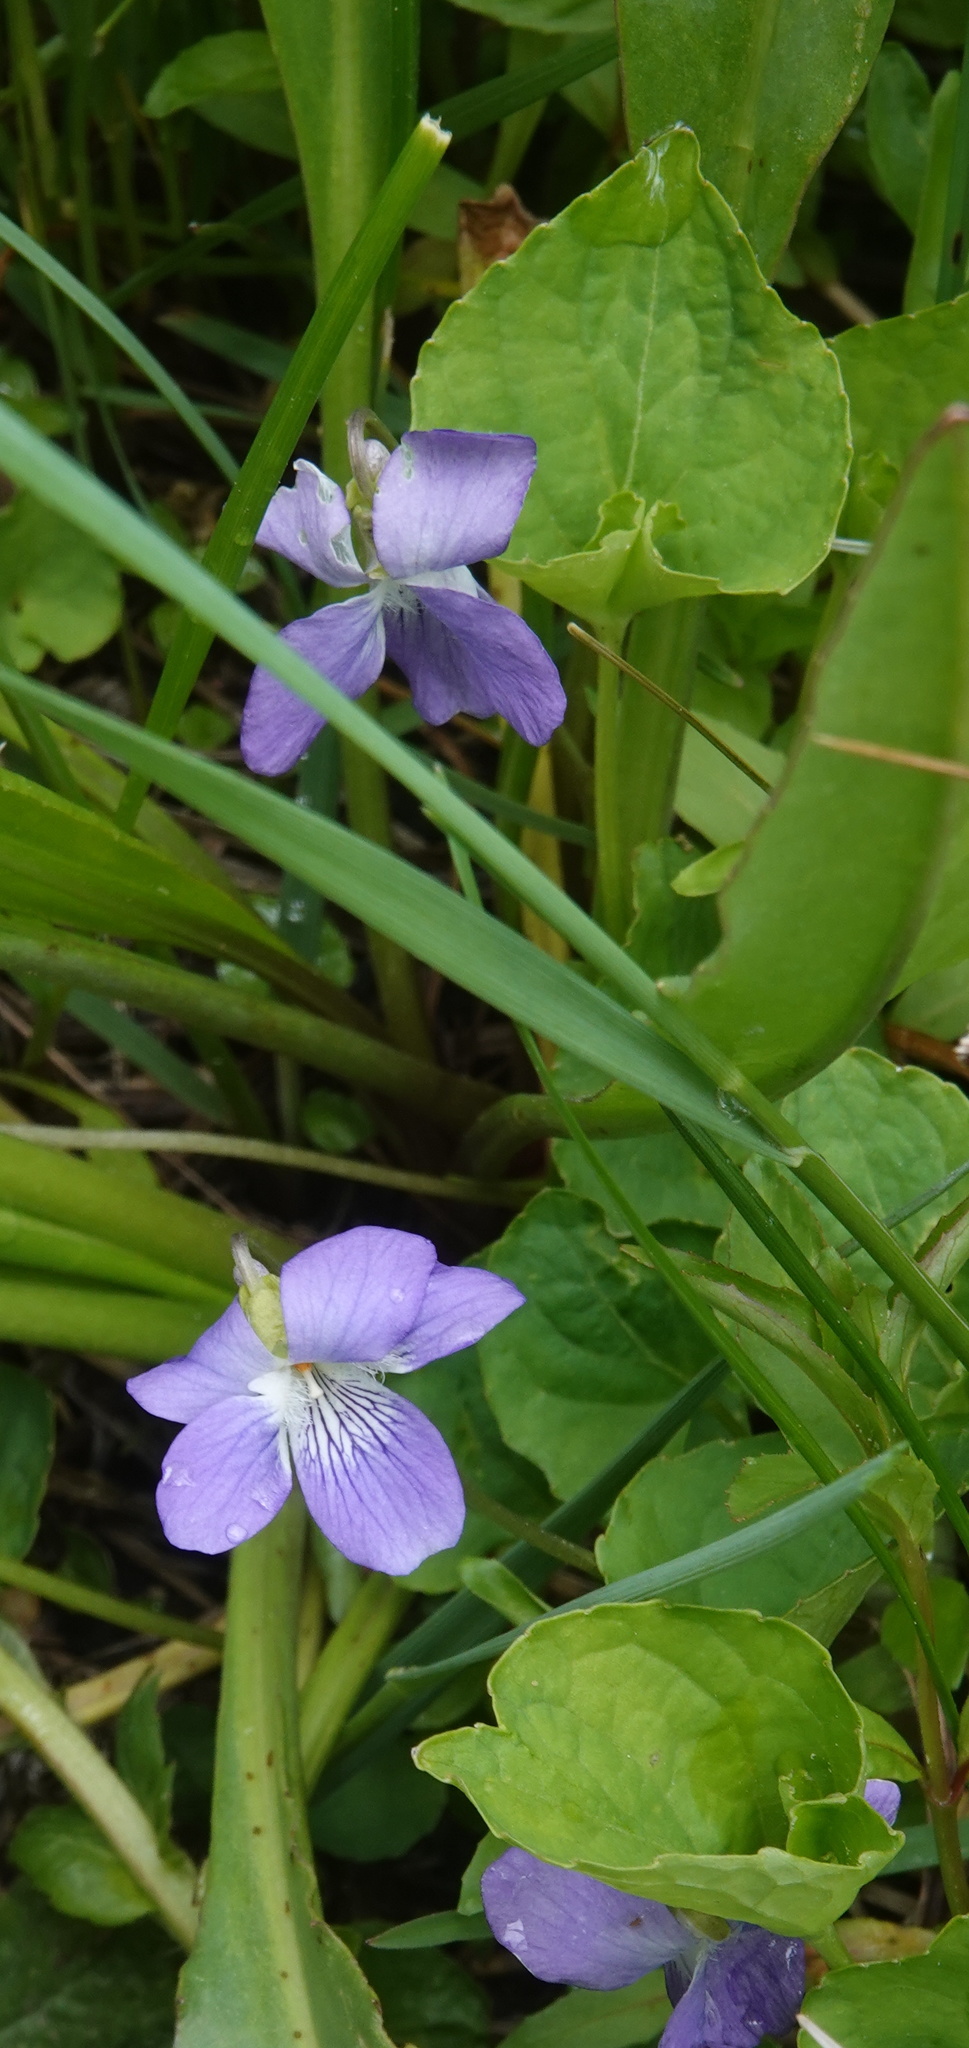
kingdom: Plantae
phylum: Tracheophyta
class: Magnoliopsida
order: Malpighiales
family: Violaceae
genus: Viola
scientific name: Viola nephrophylla
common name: Blue meadow violet
